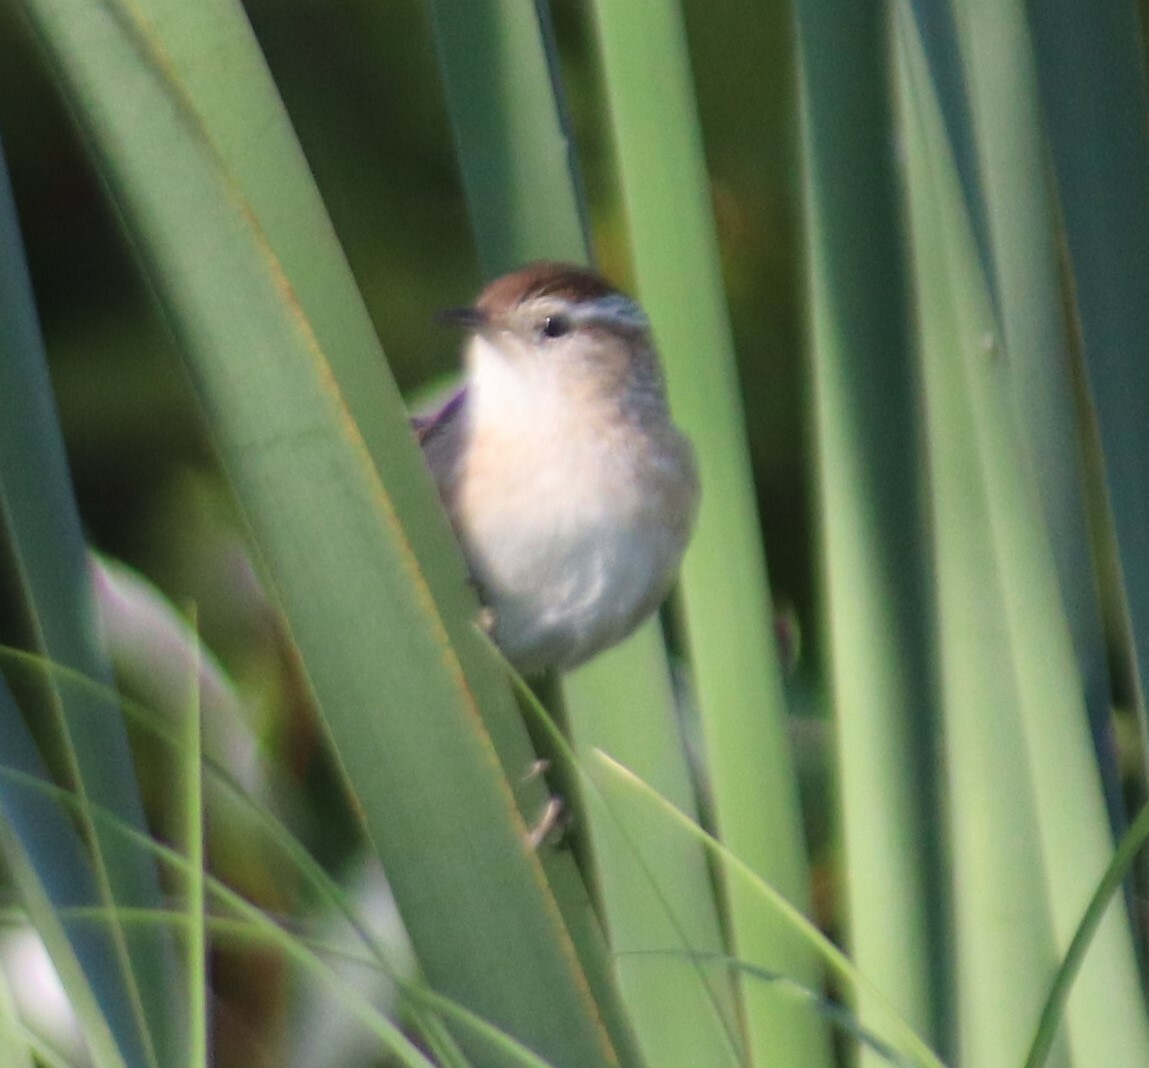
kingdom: Animalia
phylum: Chordata
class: Aves
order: Passeriformes
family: Troglodytidae
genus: Cistothorus
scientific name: Cistothorus palustris
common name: Marsh wren
